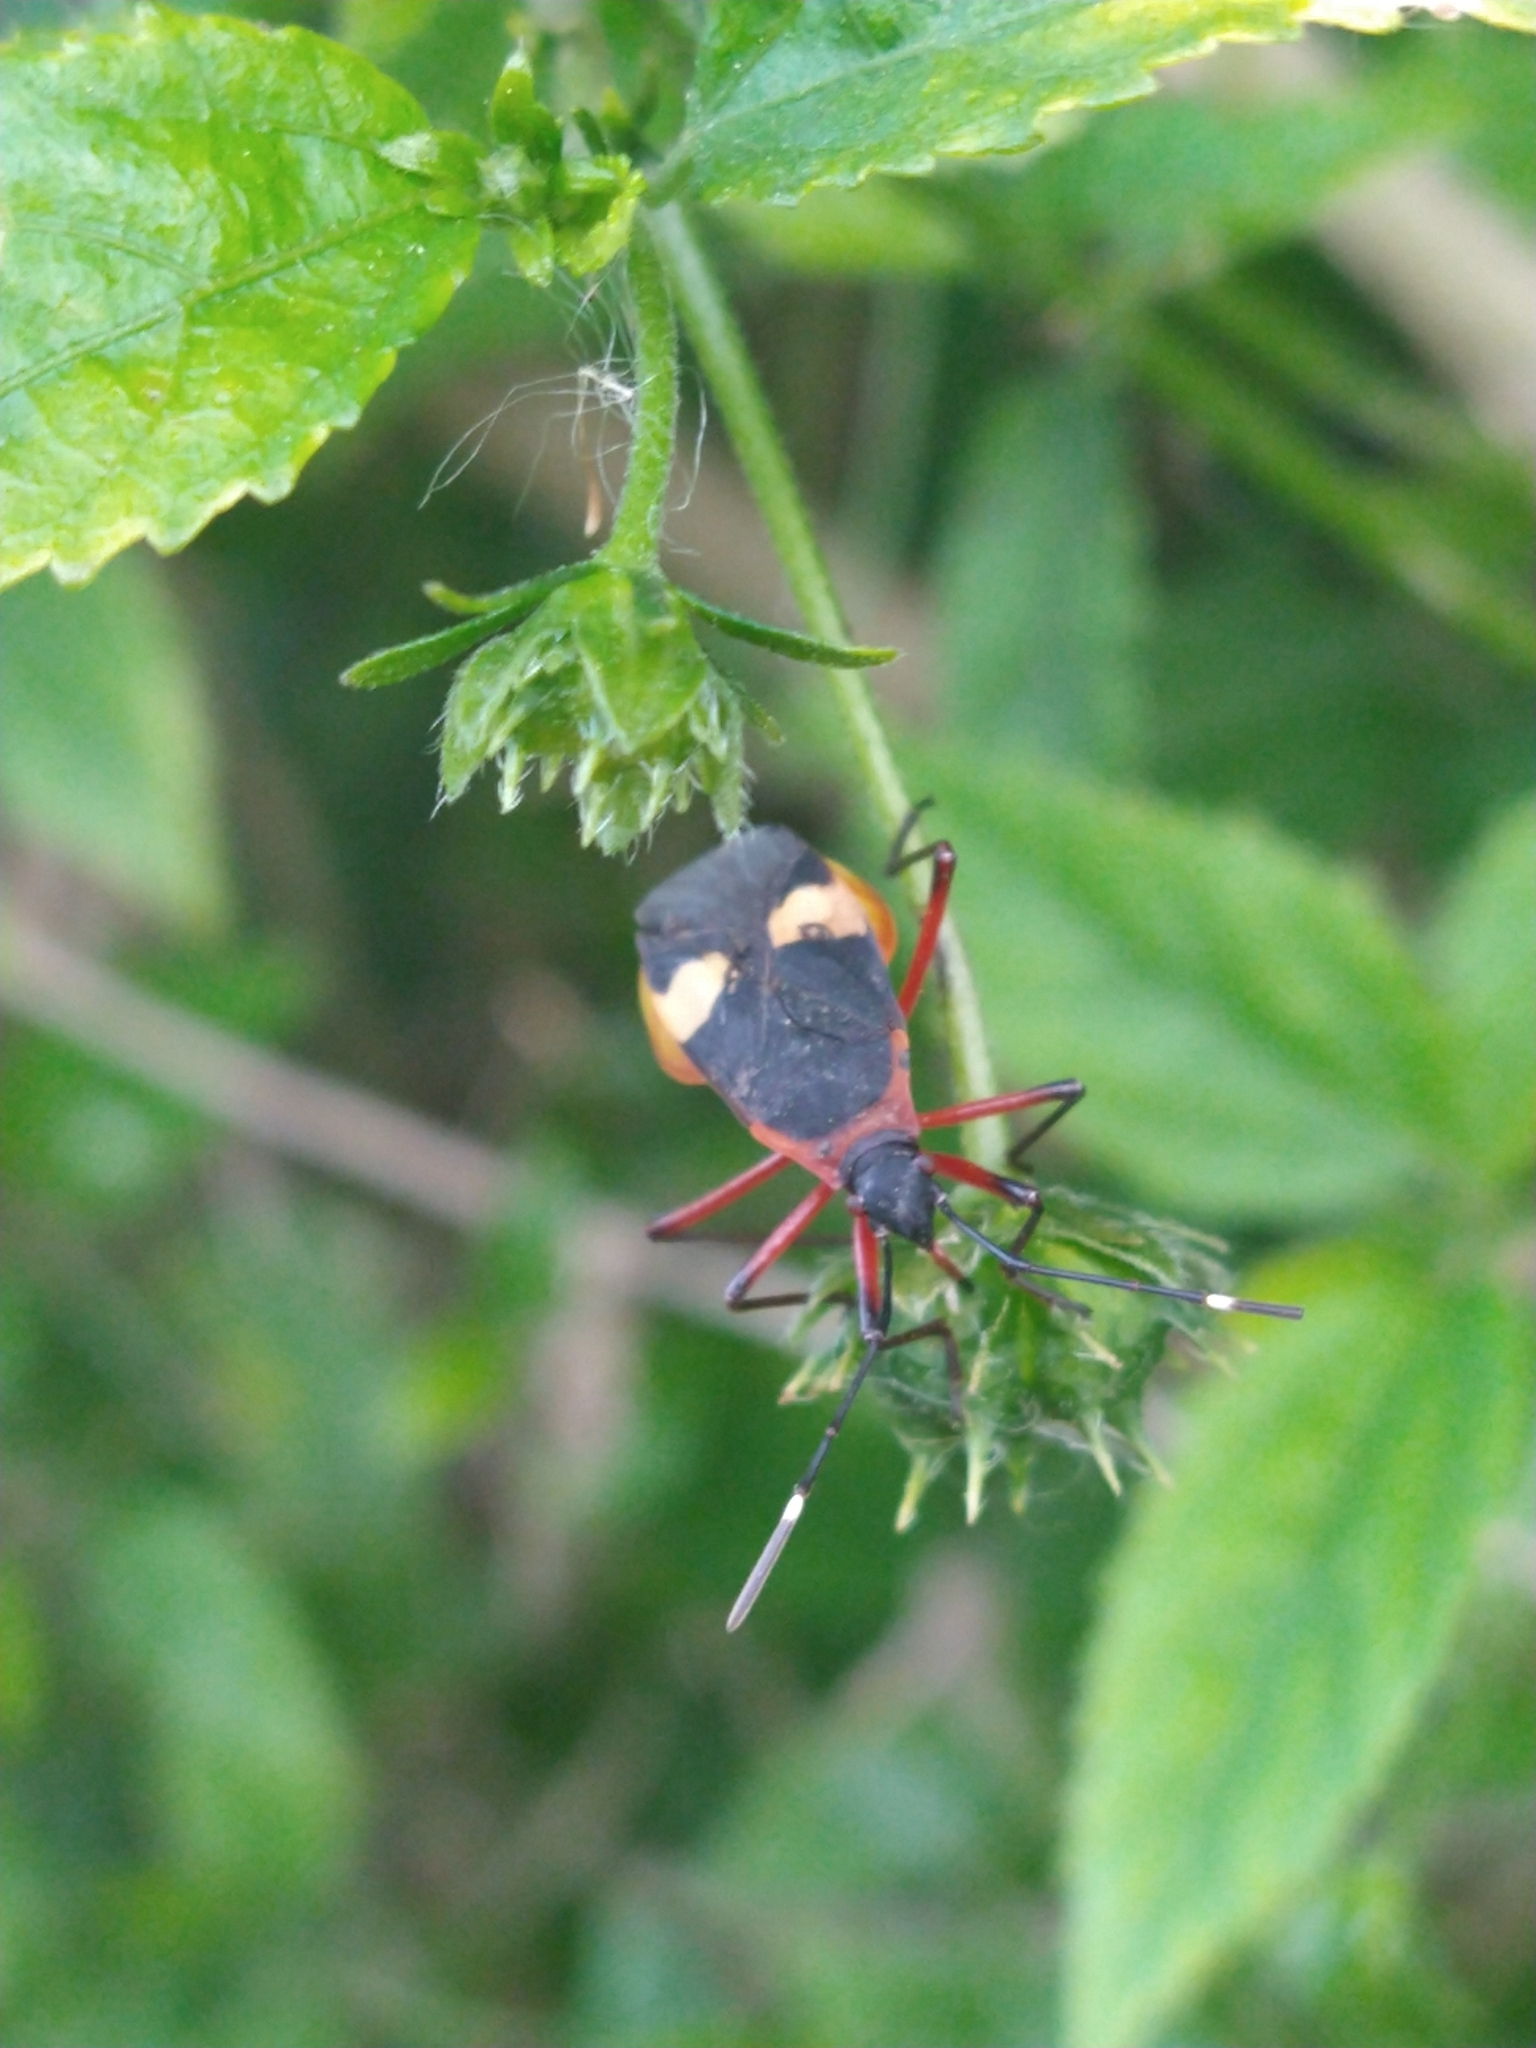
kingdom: Animalia
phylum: Arthropoda
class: Insecta
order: Hemiptera
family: Pyrrhocoridae
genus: Dysdercus
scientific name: Dysdercus albofasciatus
